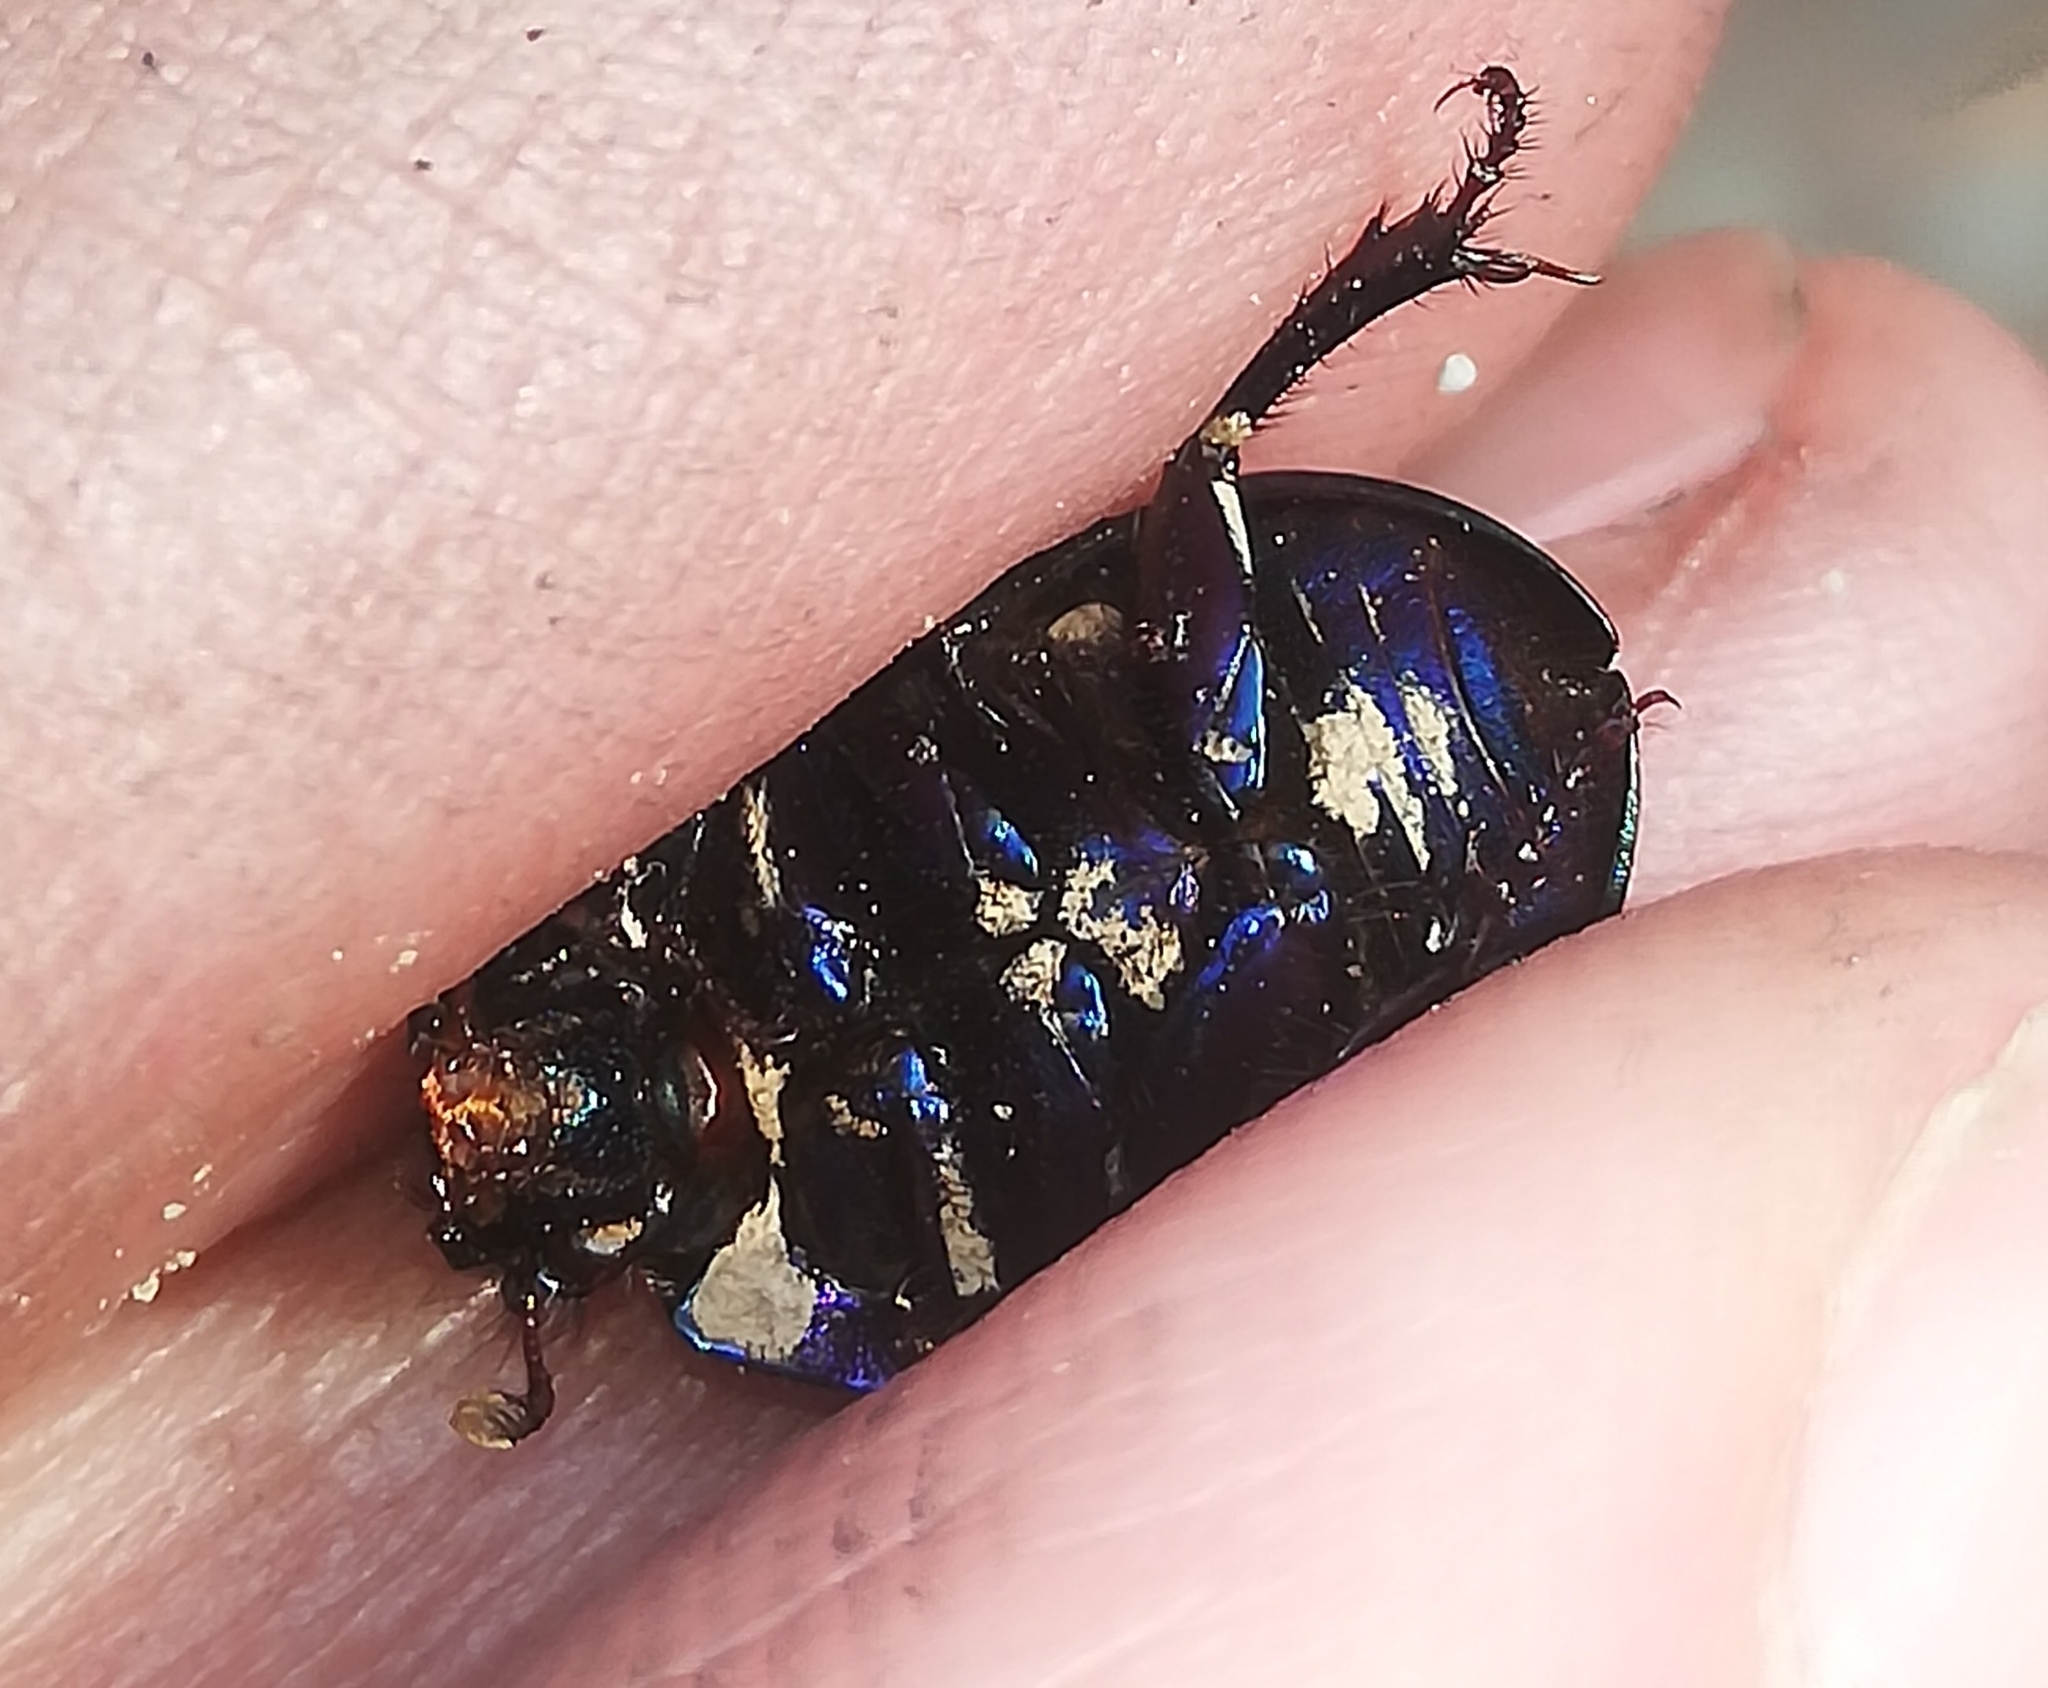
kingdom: Animalia
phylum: Arthropoda
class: Insecta
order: Coleoptera
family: Geotrupidae
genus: Anoplotrupes
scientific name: Anoplotrupes stercorosus
